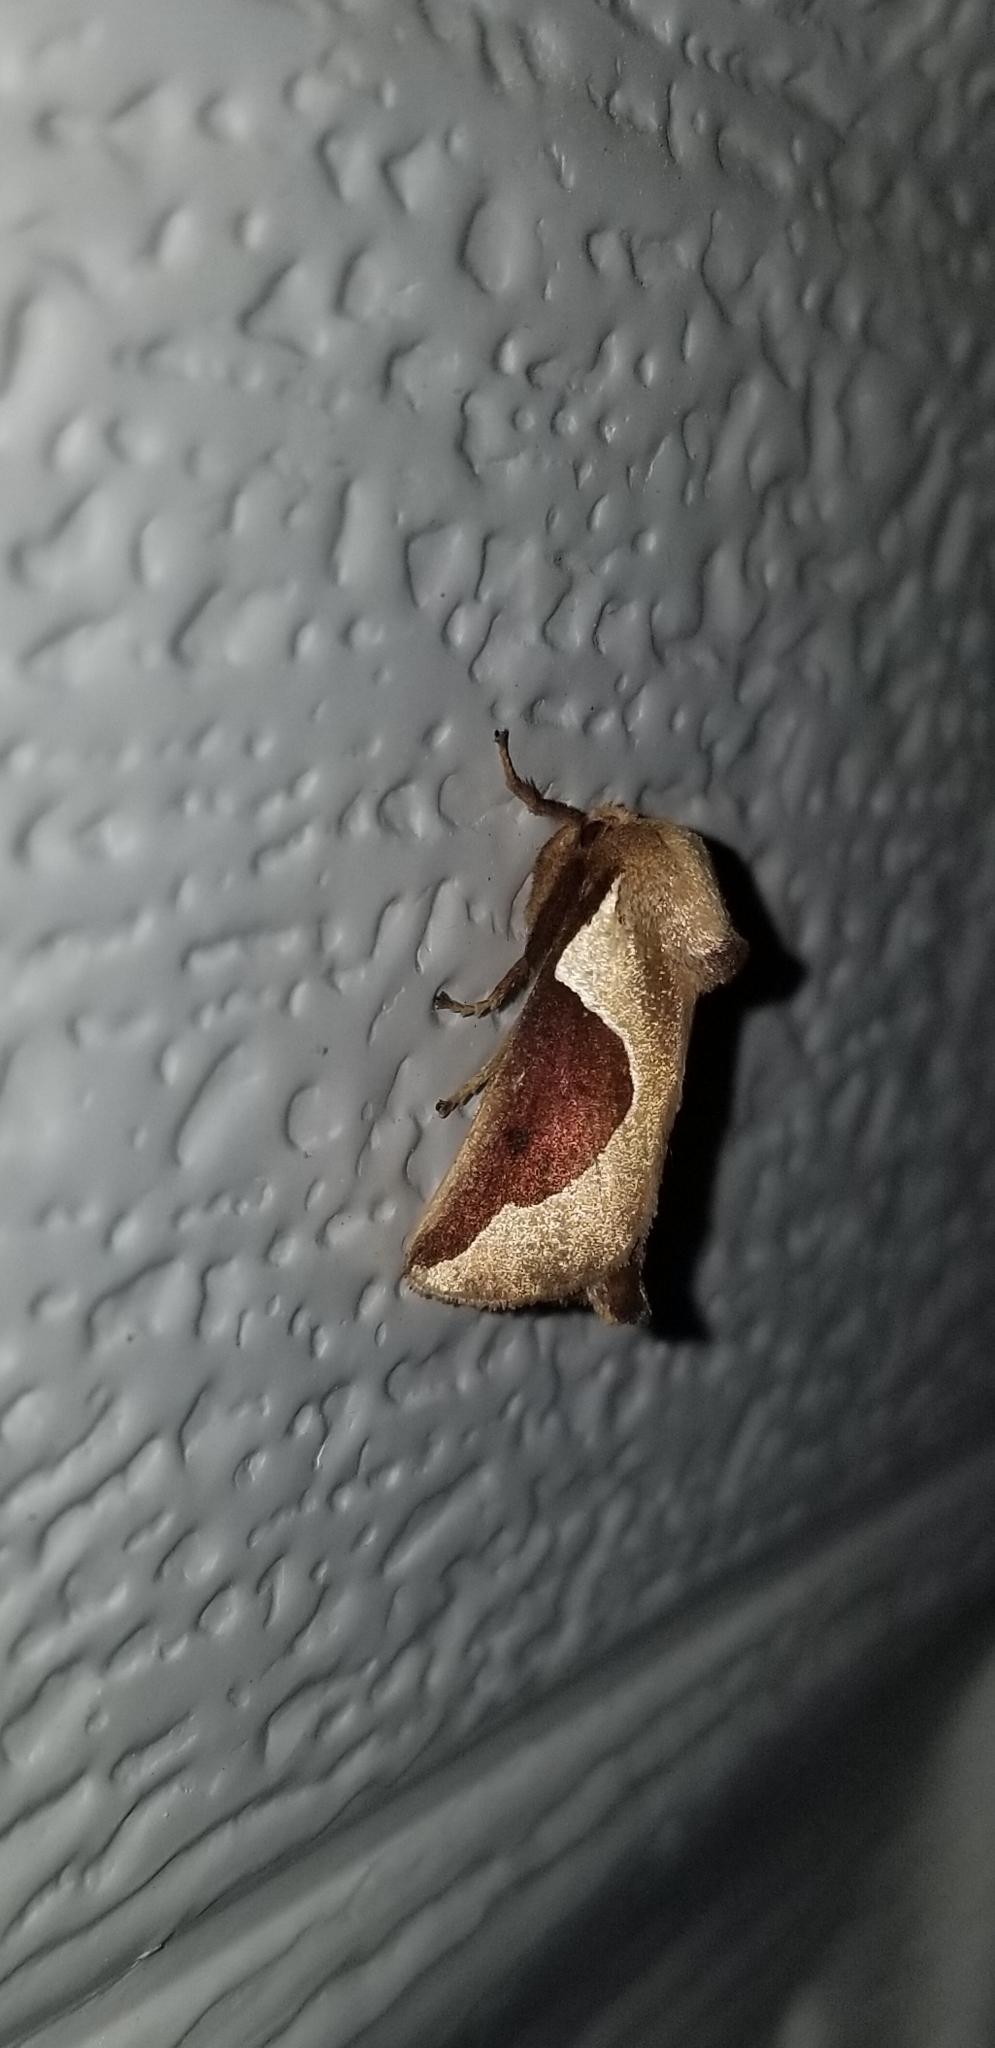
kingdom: Animalia
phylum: Arthropoda
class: Insecta
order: Lepidoptera
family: Limacodidae
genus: Prolimacodes
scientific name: Prolimacodes badia
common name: Skiff moth
